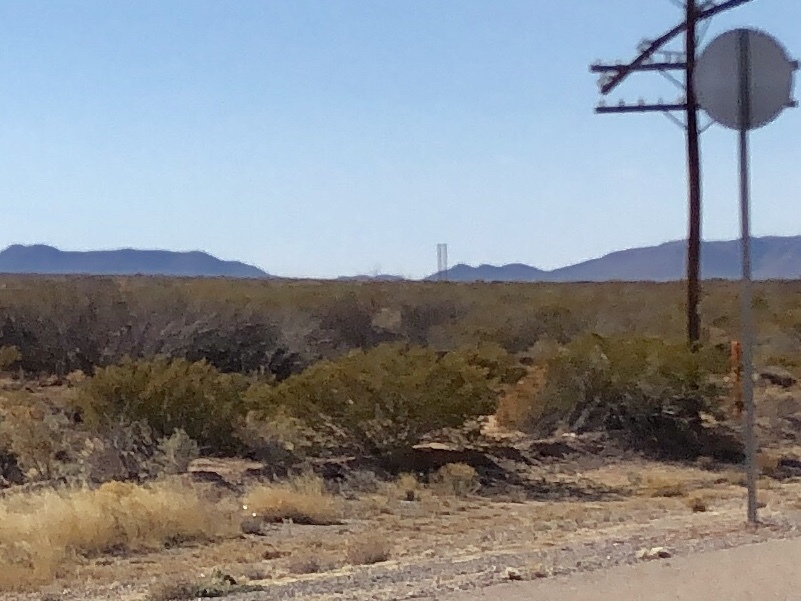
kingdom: Plantae
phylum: Tracheophyta
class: Magnoliopsida
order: Zygophyllales
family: Zygophyllaceae
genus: Larrea
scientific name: Larrea tridentata
